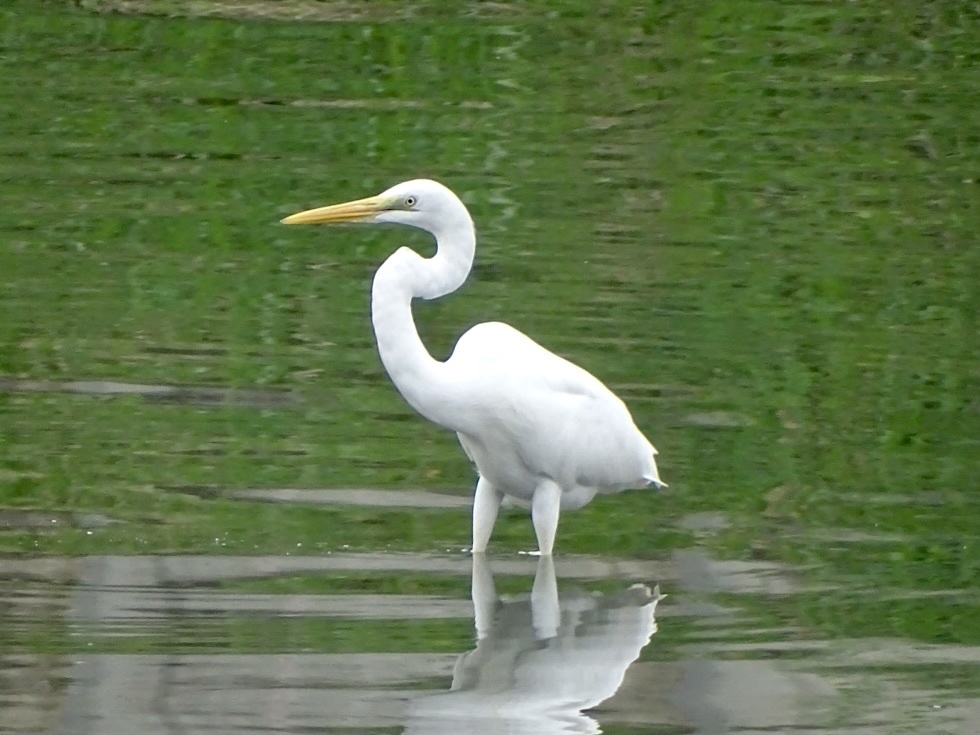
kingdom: Animalia
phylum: Chordata
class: Aves
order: Pelecaniformes
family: Ardeidae
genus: Ardea
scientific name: Ardea alba
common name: Great egret
